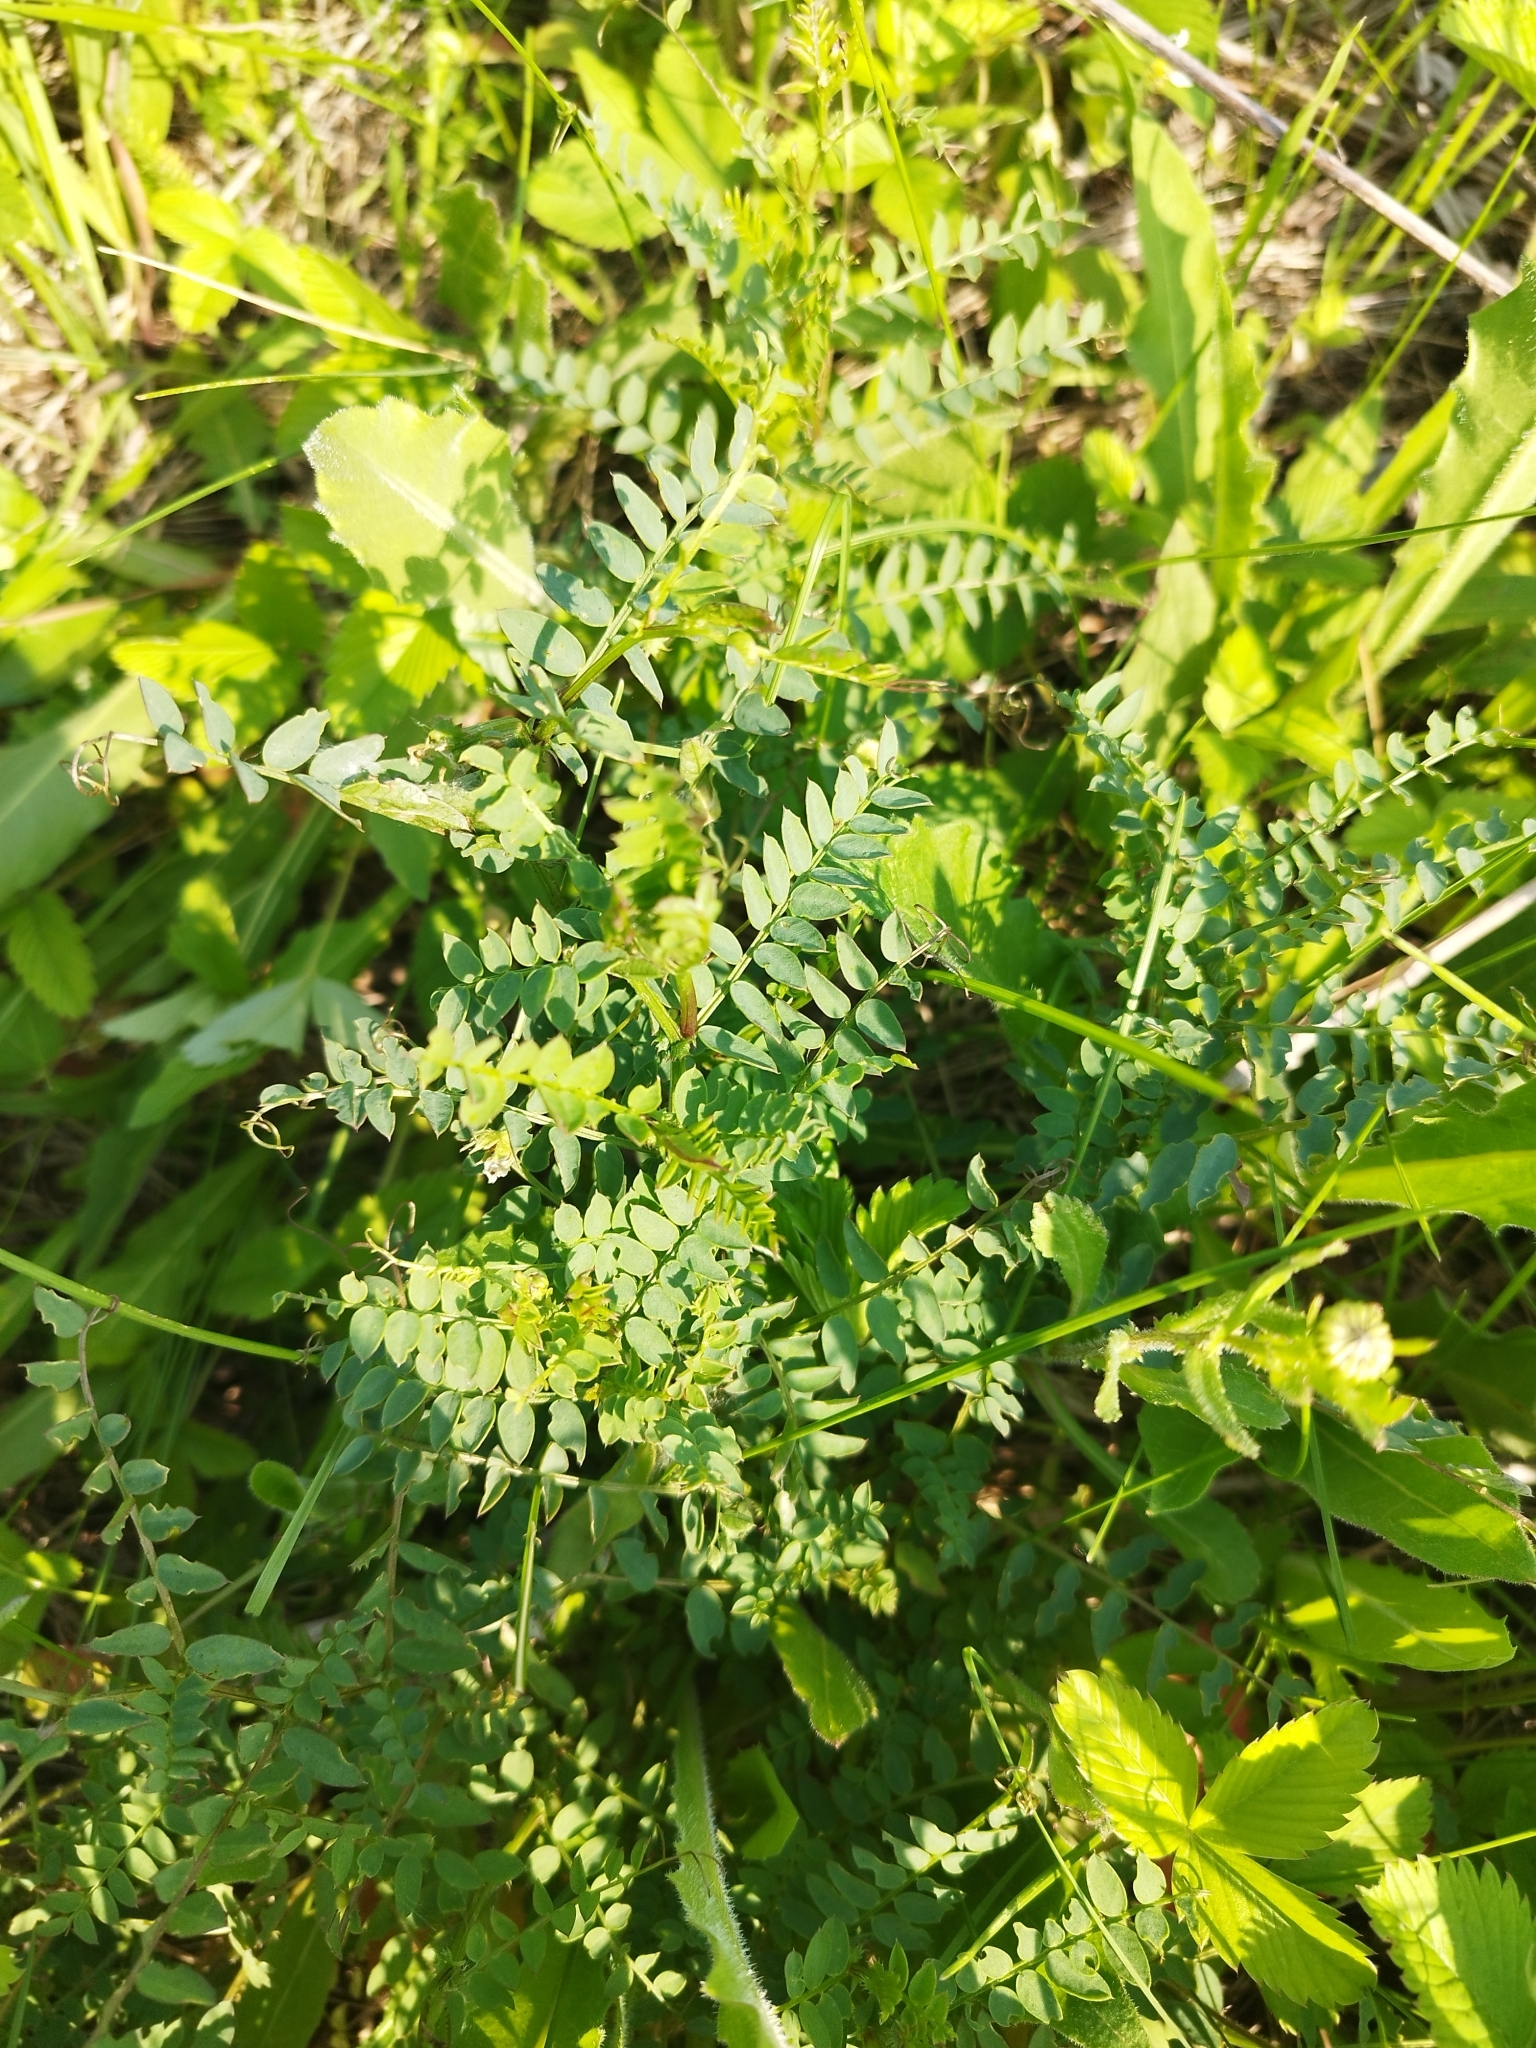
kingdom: Plantae
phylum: Tracheophyta
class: Magnoliopsida
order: Fabales
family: Fabaceae
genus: Vicia
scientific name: Vicia sylvatica
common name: Wood vetch
